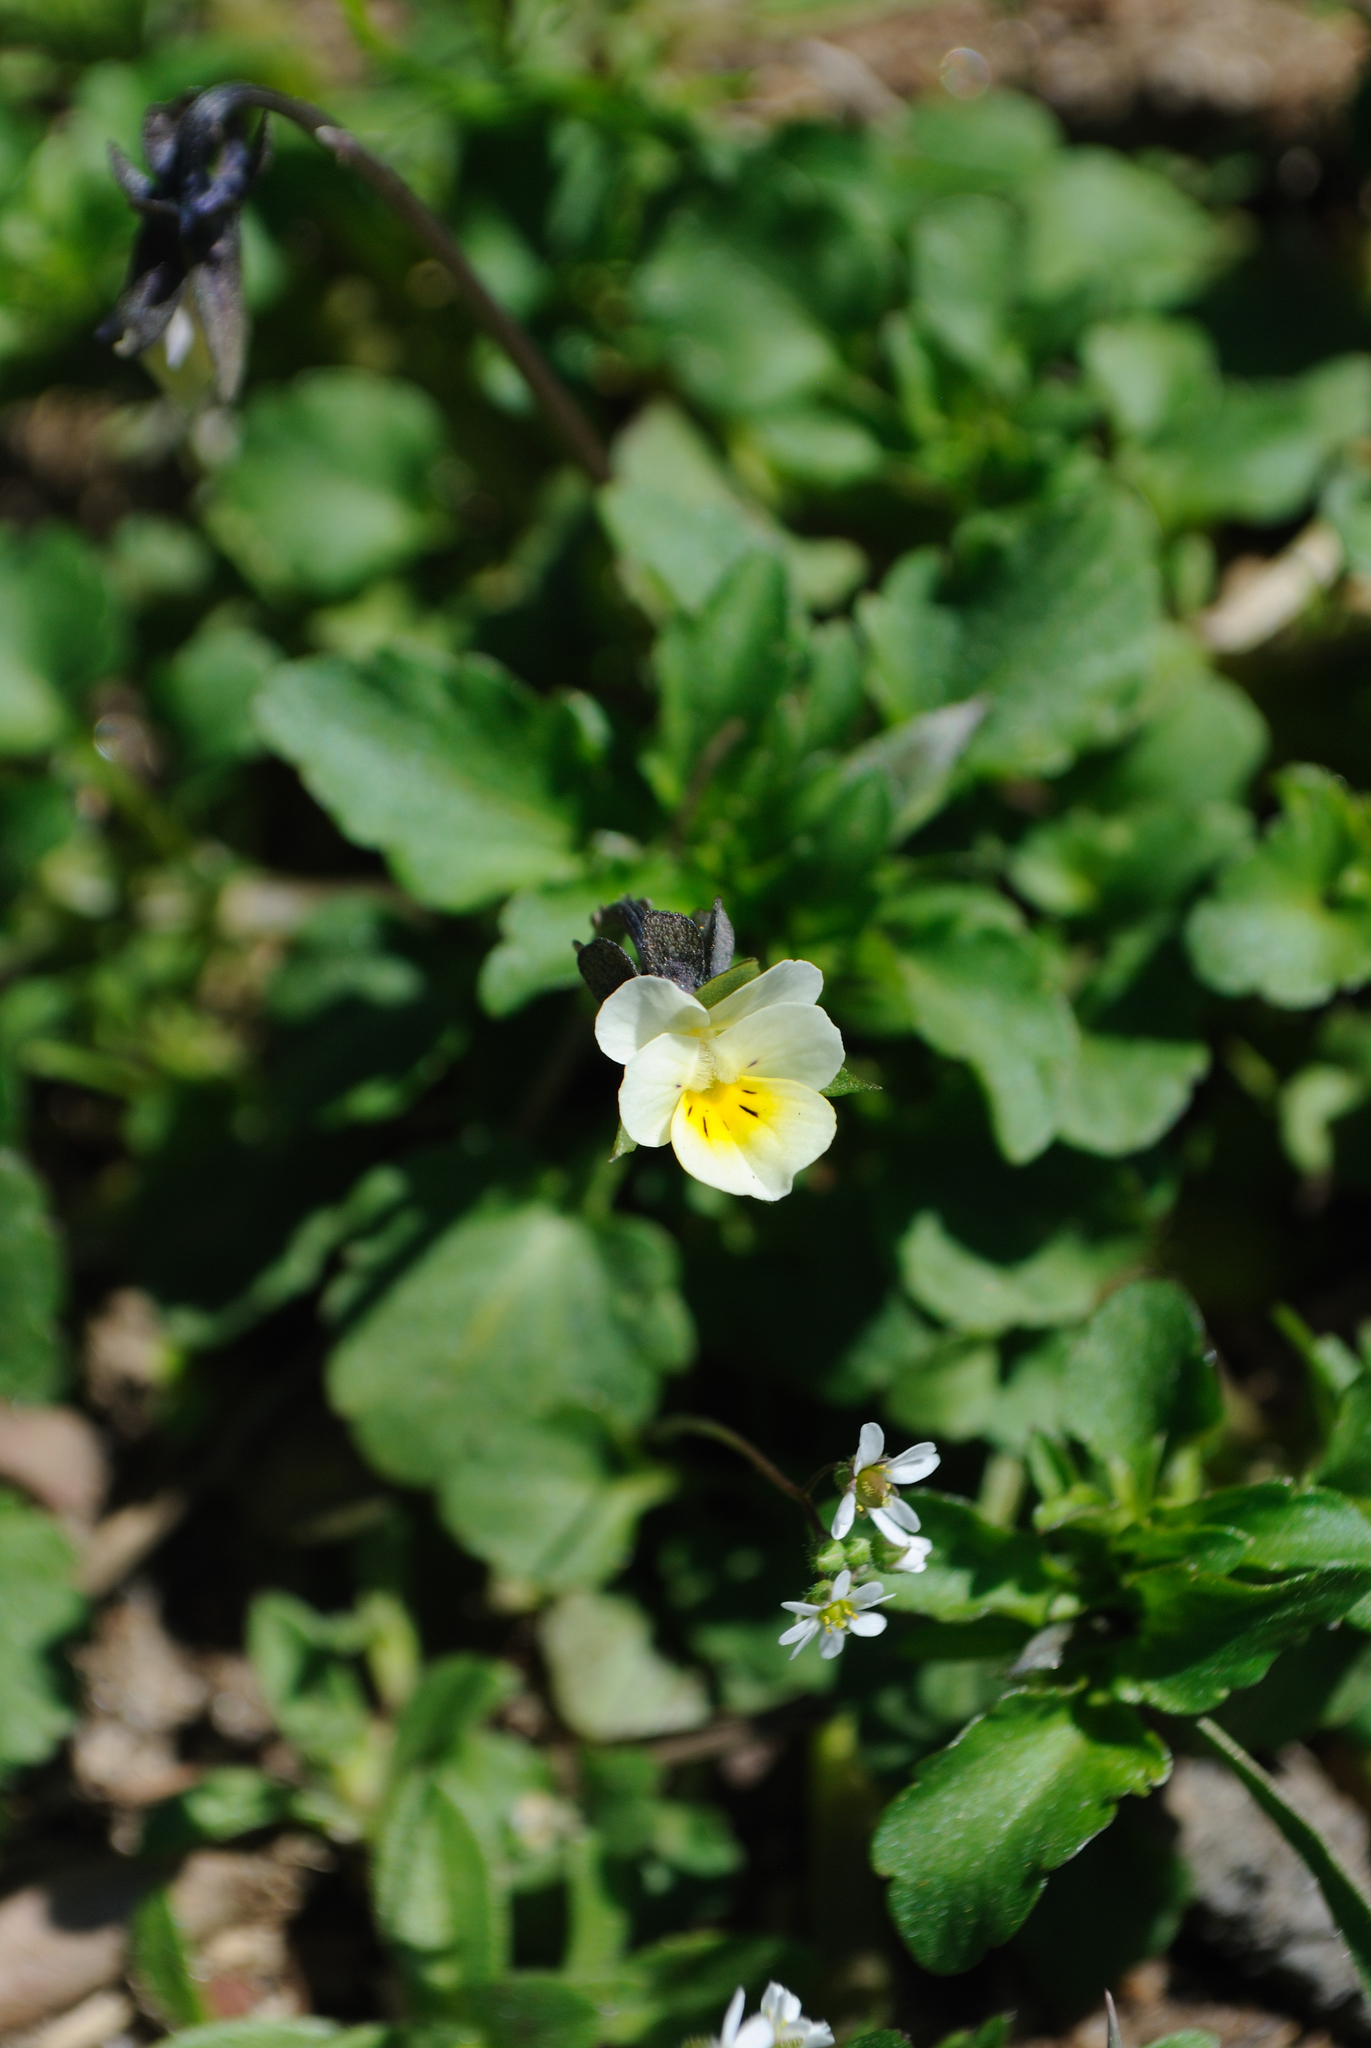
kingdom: Plantae
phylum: Tracheophyta
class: Magnoliopsida
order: Malpighiales
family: Violaceae
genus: Viola
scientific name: Viola arvensis
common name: Field pansy
